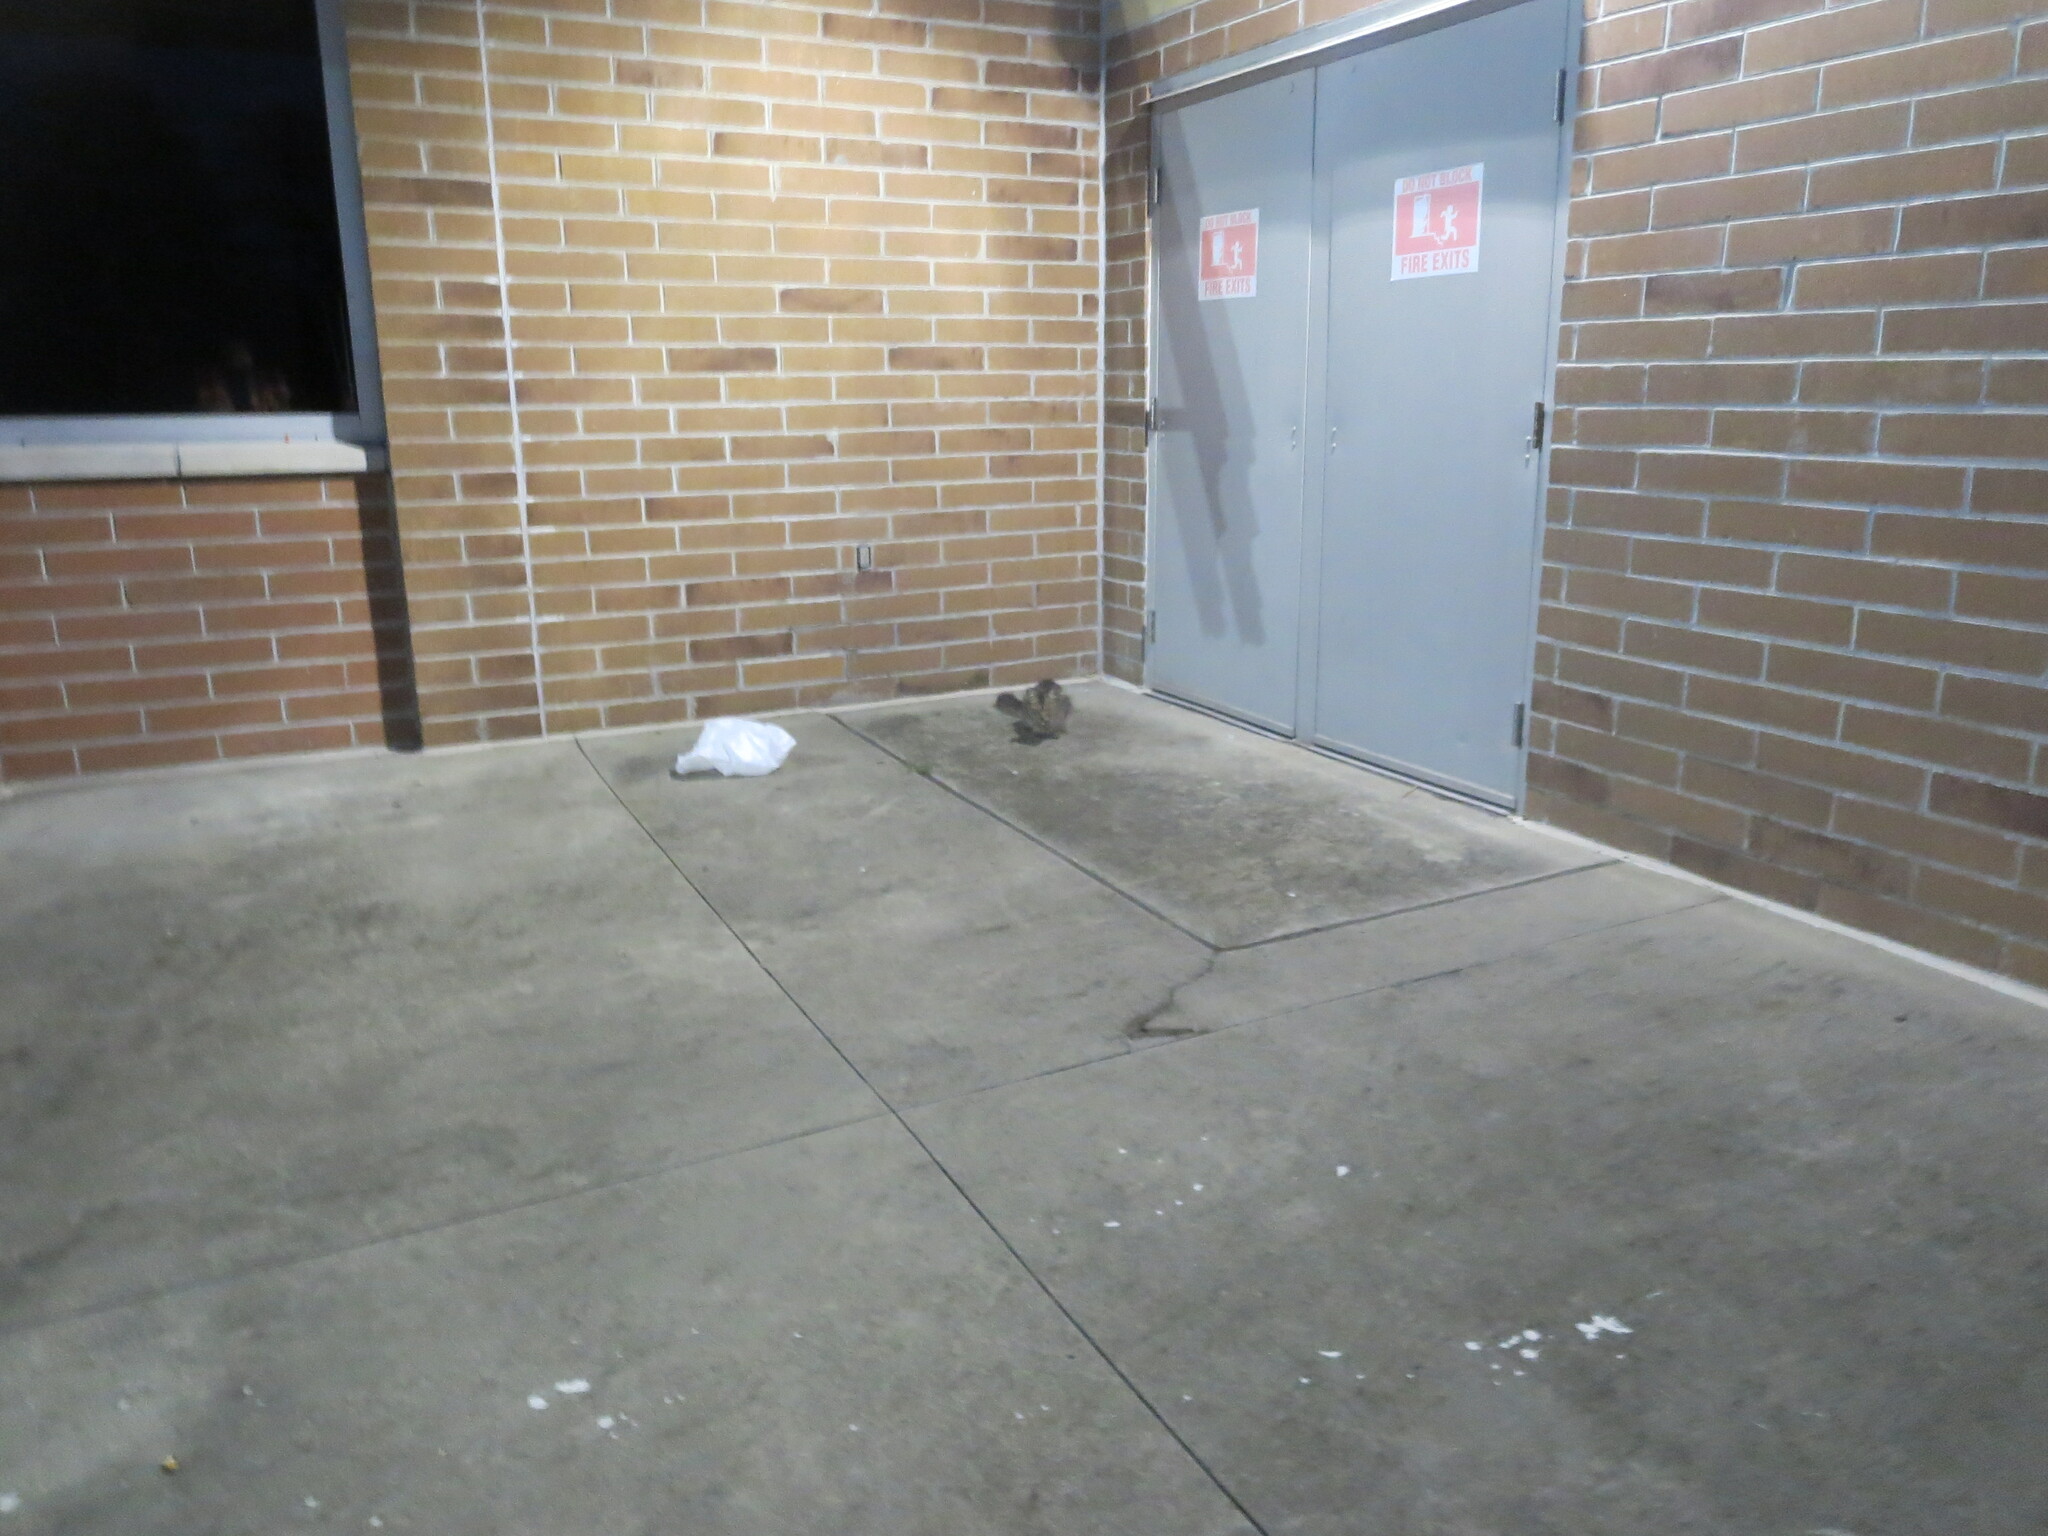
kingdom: Animalia
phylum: Chordata
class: Mammalia
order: Carnivora
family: Felidae
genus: Felis
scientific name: Felis catus
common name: Domestic cat
